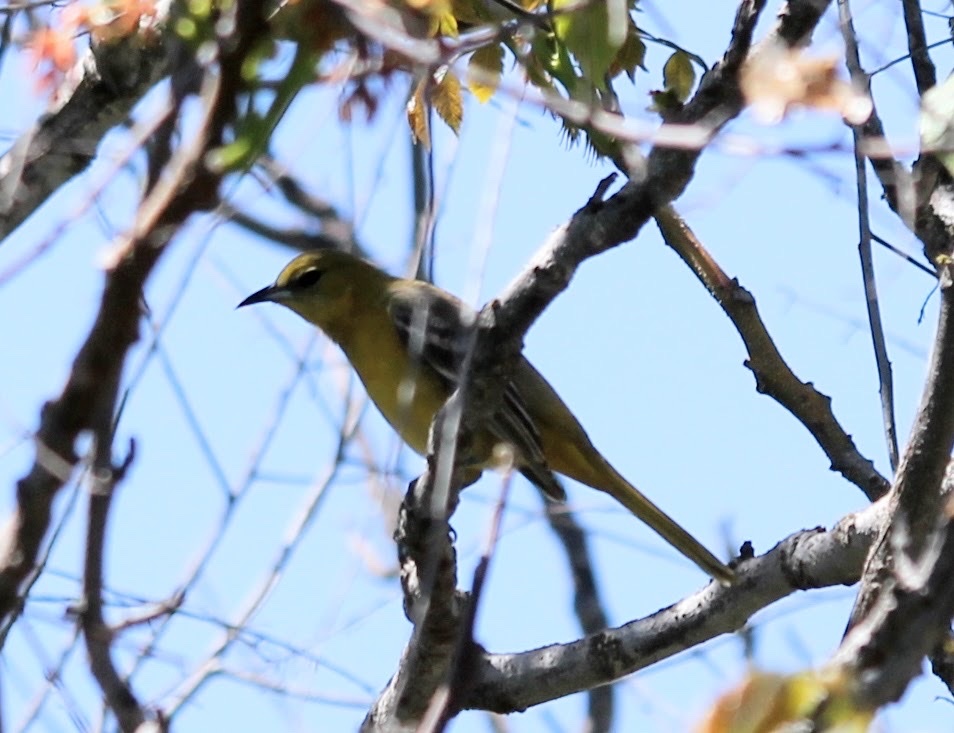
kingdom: Animalia
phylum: Chordata
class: Aves
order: Passeriformes
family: Icteridae
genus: Icterus
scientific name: Icterus cucullatus
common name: Hooded oriole
